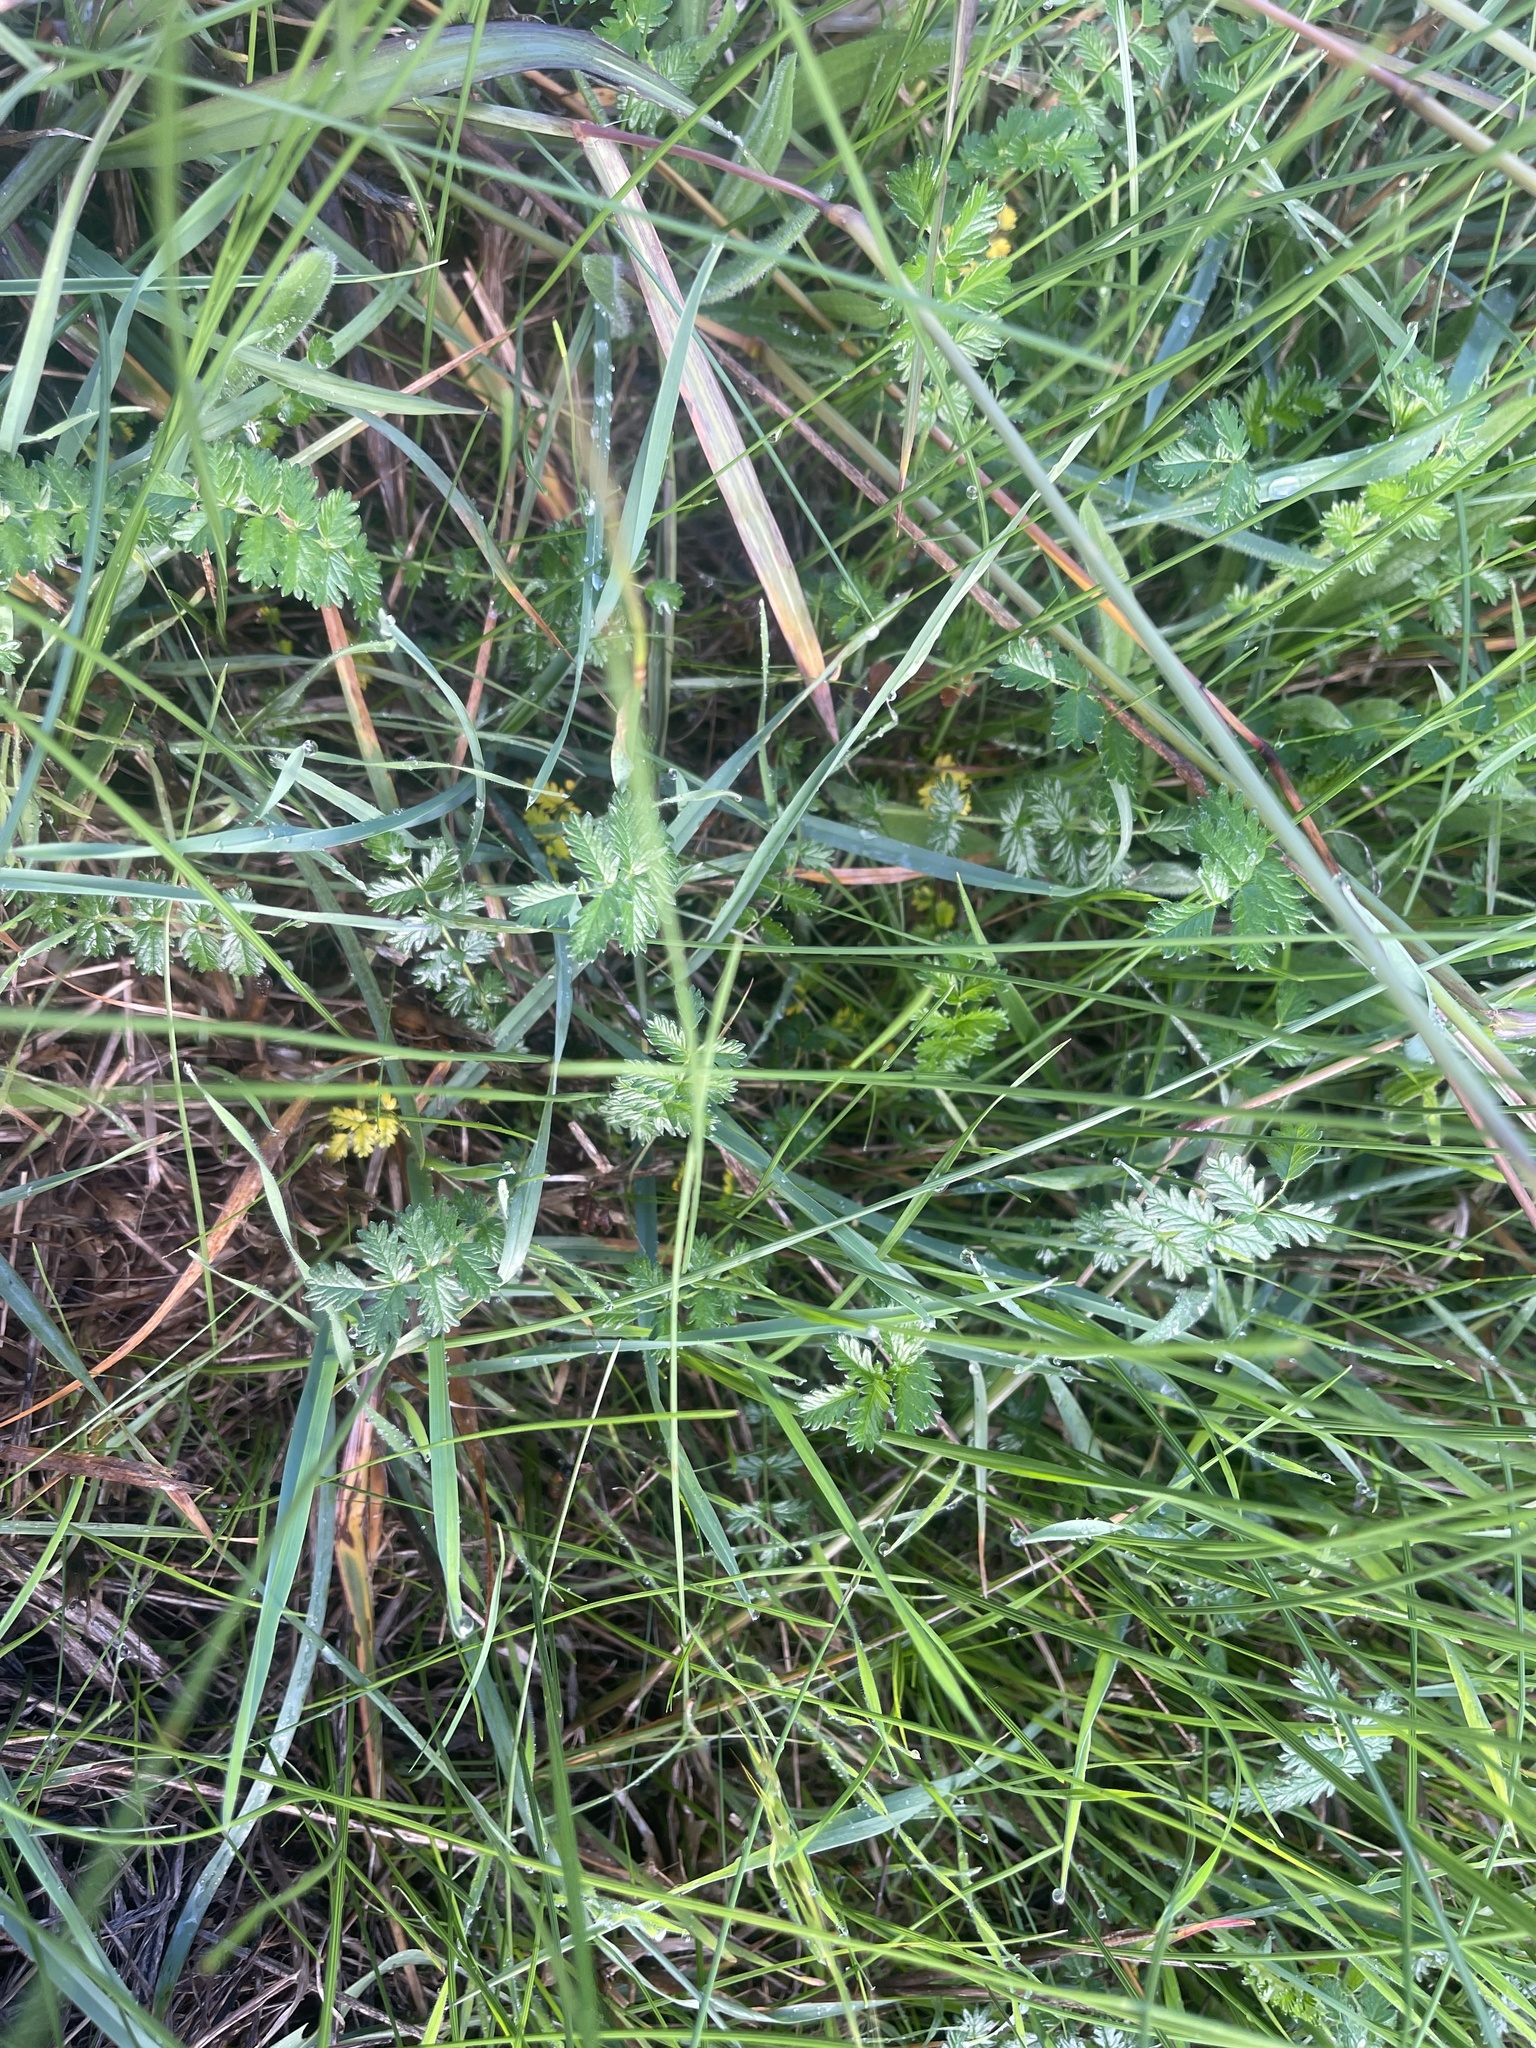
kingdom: Plantae
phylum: Tracheophyta
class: Magnoliopsida
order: Rosales
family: Rosaceae
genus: Acaena
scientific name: Acaena echinata
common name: Sheepbur
